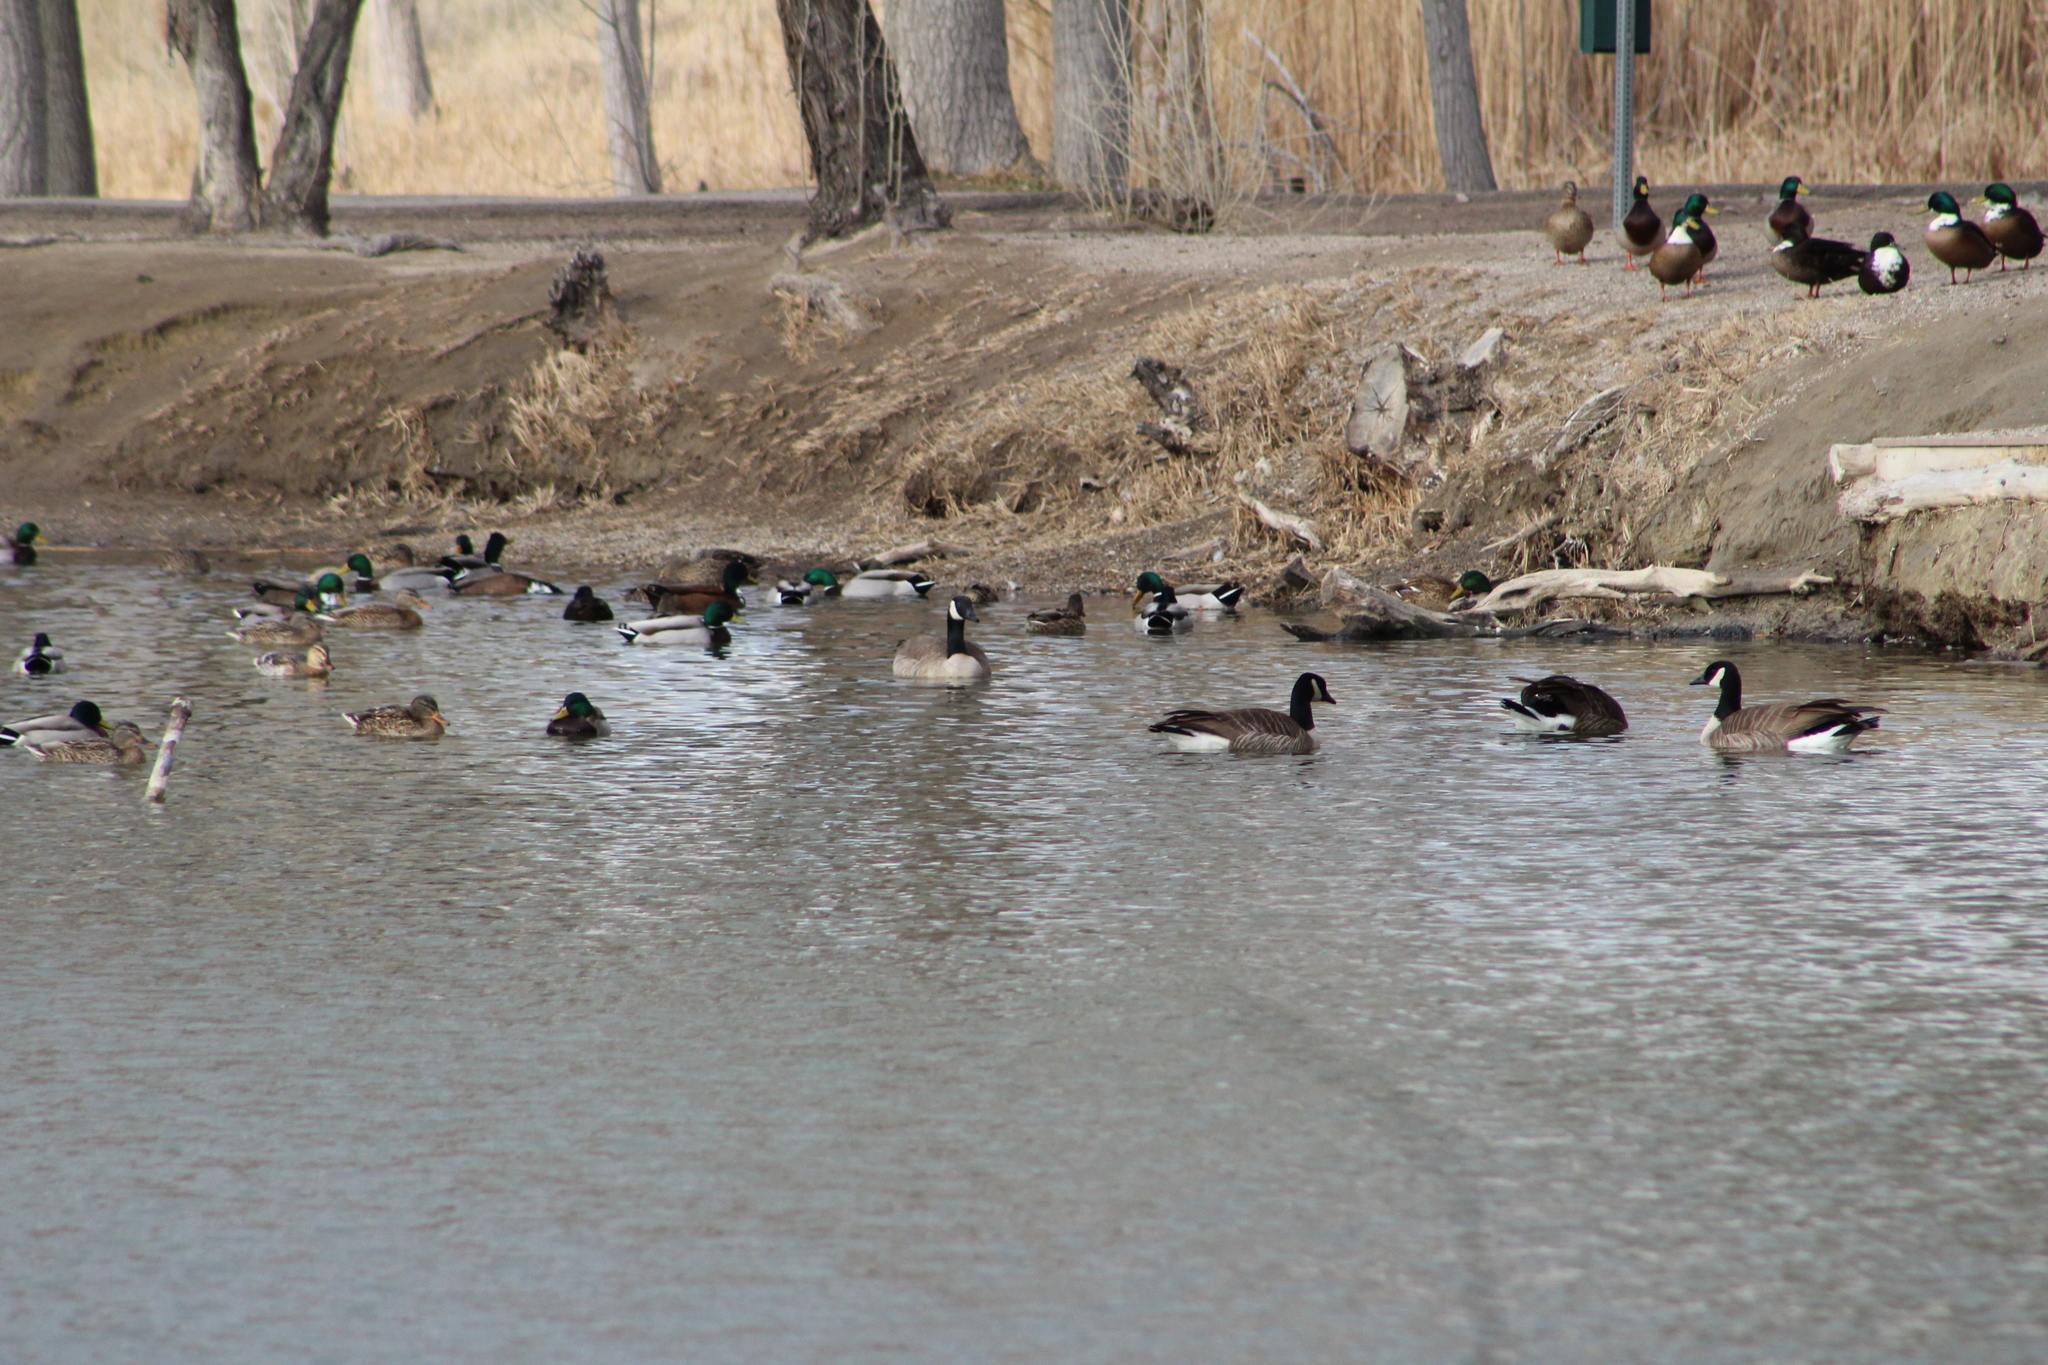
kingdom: Animalia
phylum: Chordata
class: Aves
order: Anseriformes
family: Anatidae
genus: Branta
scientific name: Branta canadensis
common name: Canada goose
